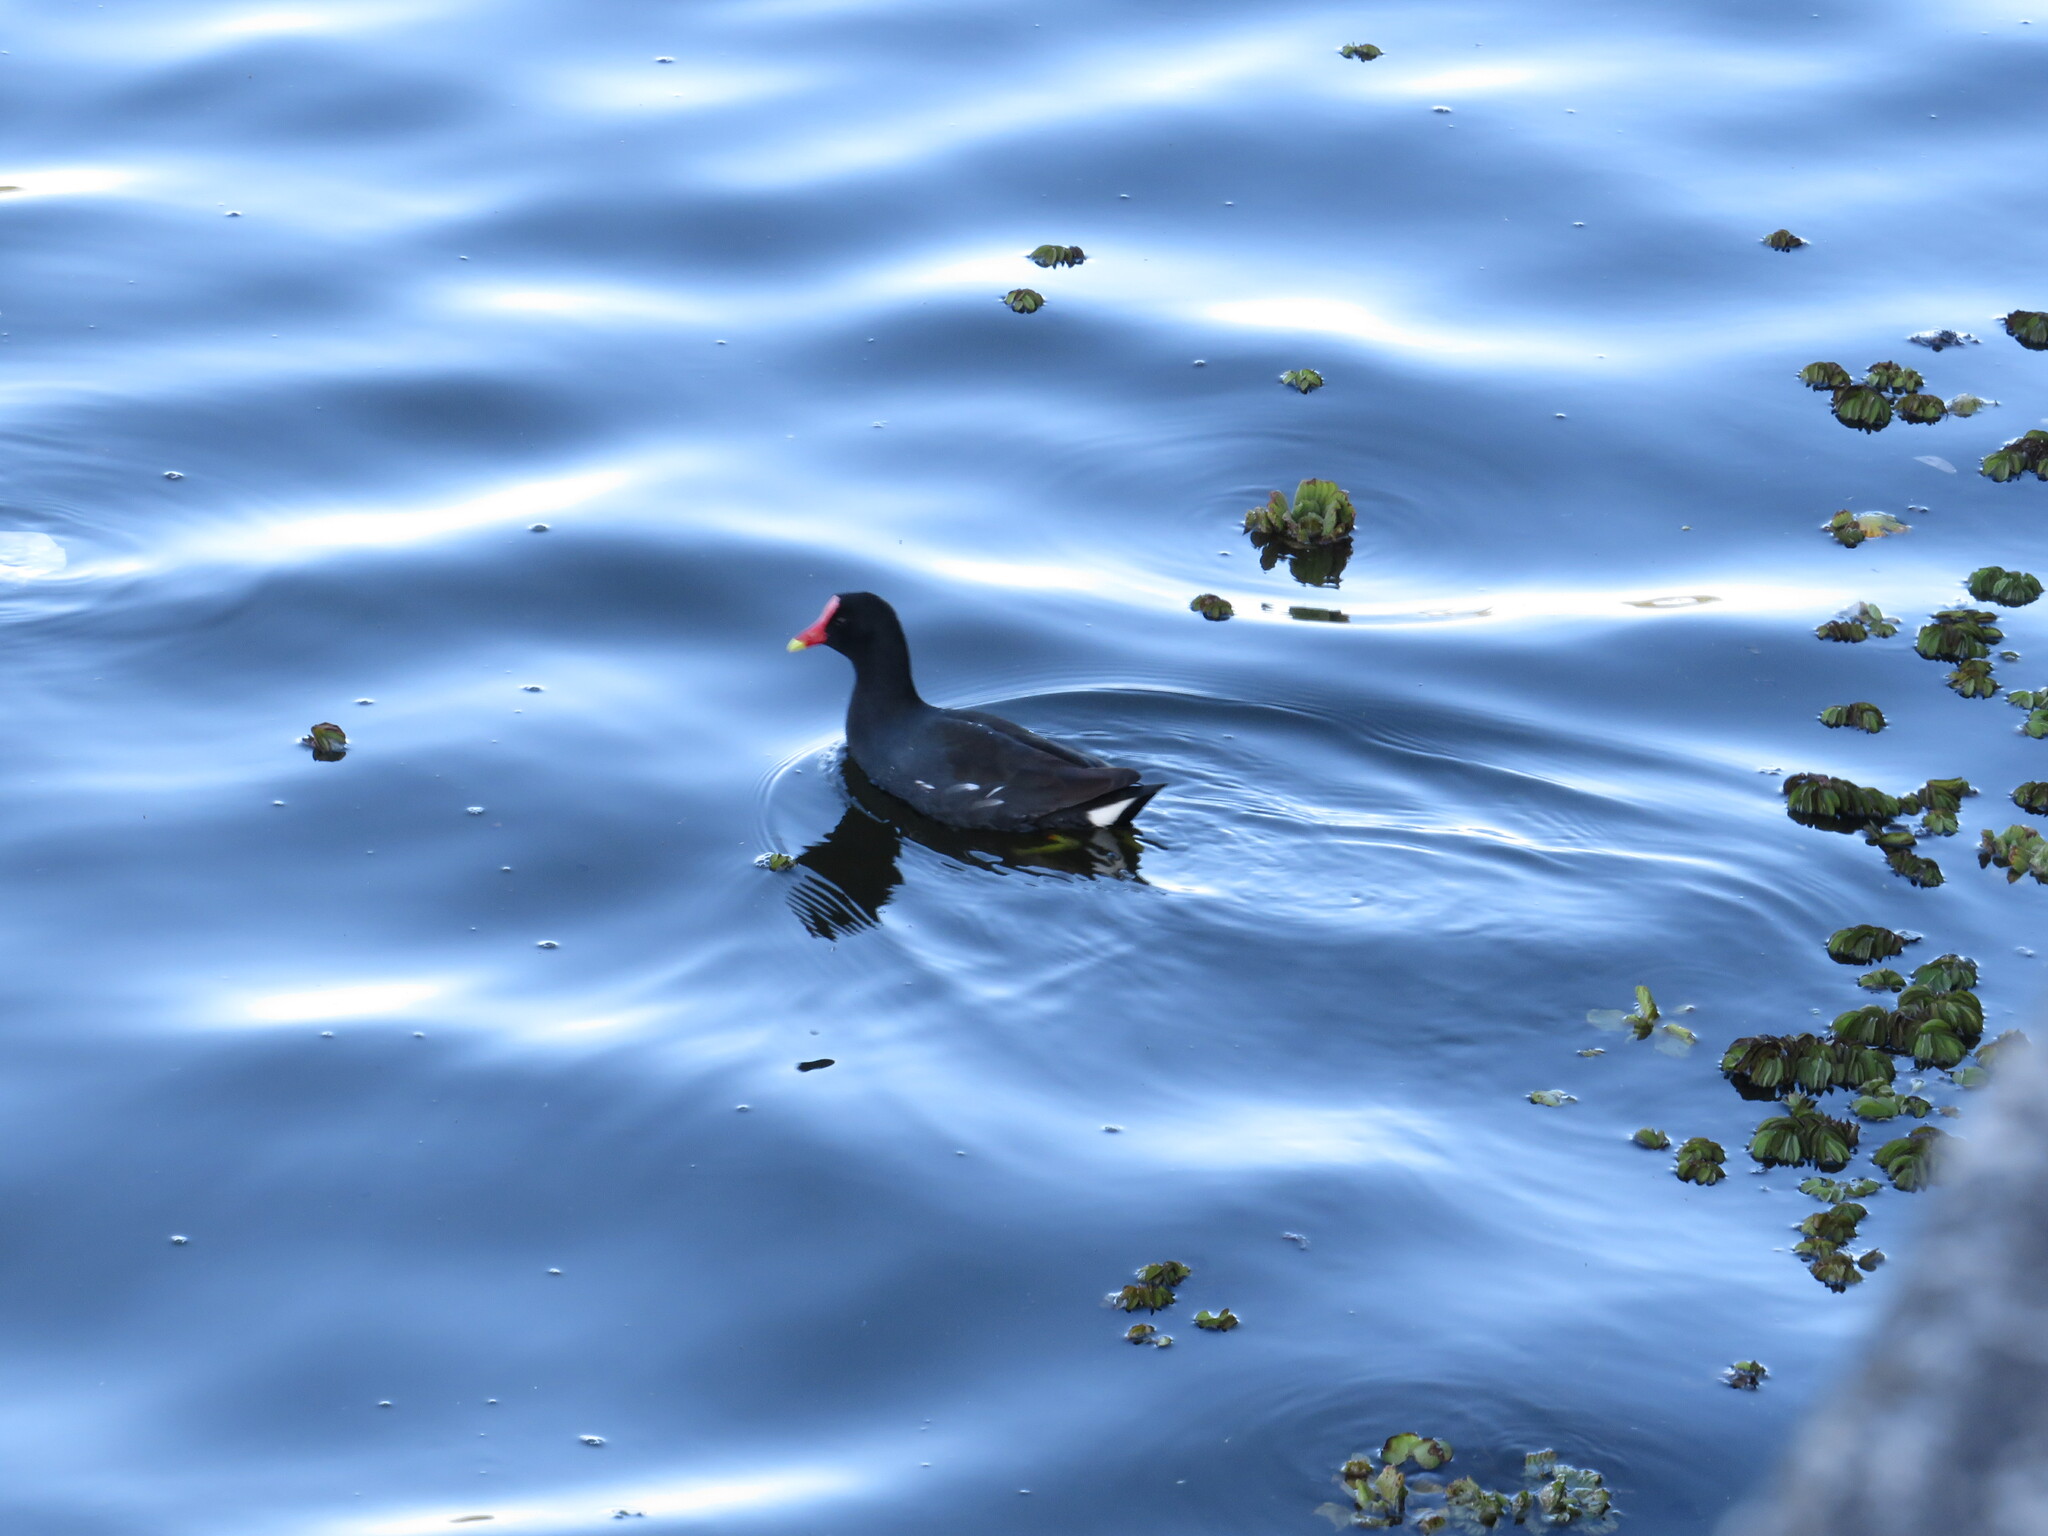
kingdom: Animalia
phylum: Chordata
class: Aves
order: Gruiformes
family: Rallidae
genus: Gallinula
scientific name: Gallinula chloropus
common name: Common moorhen
